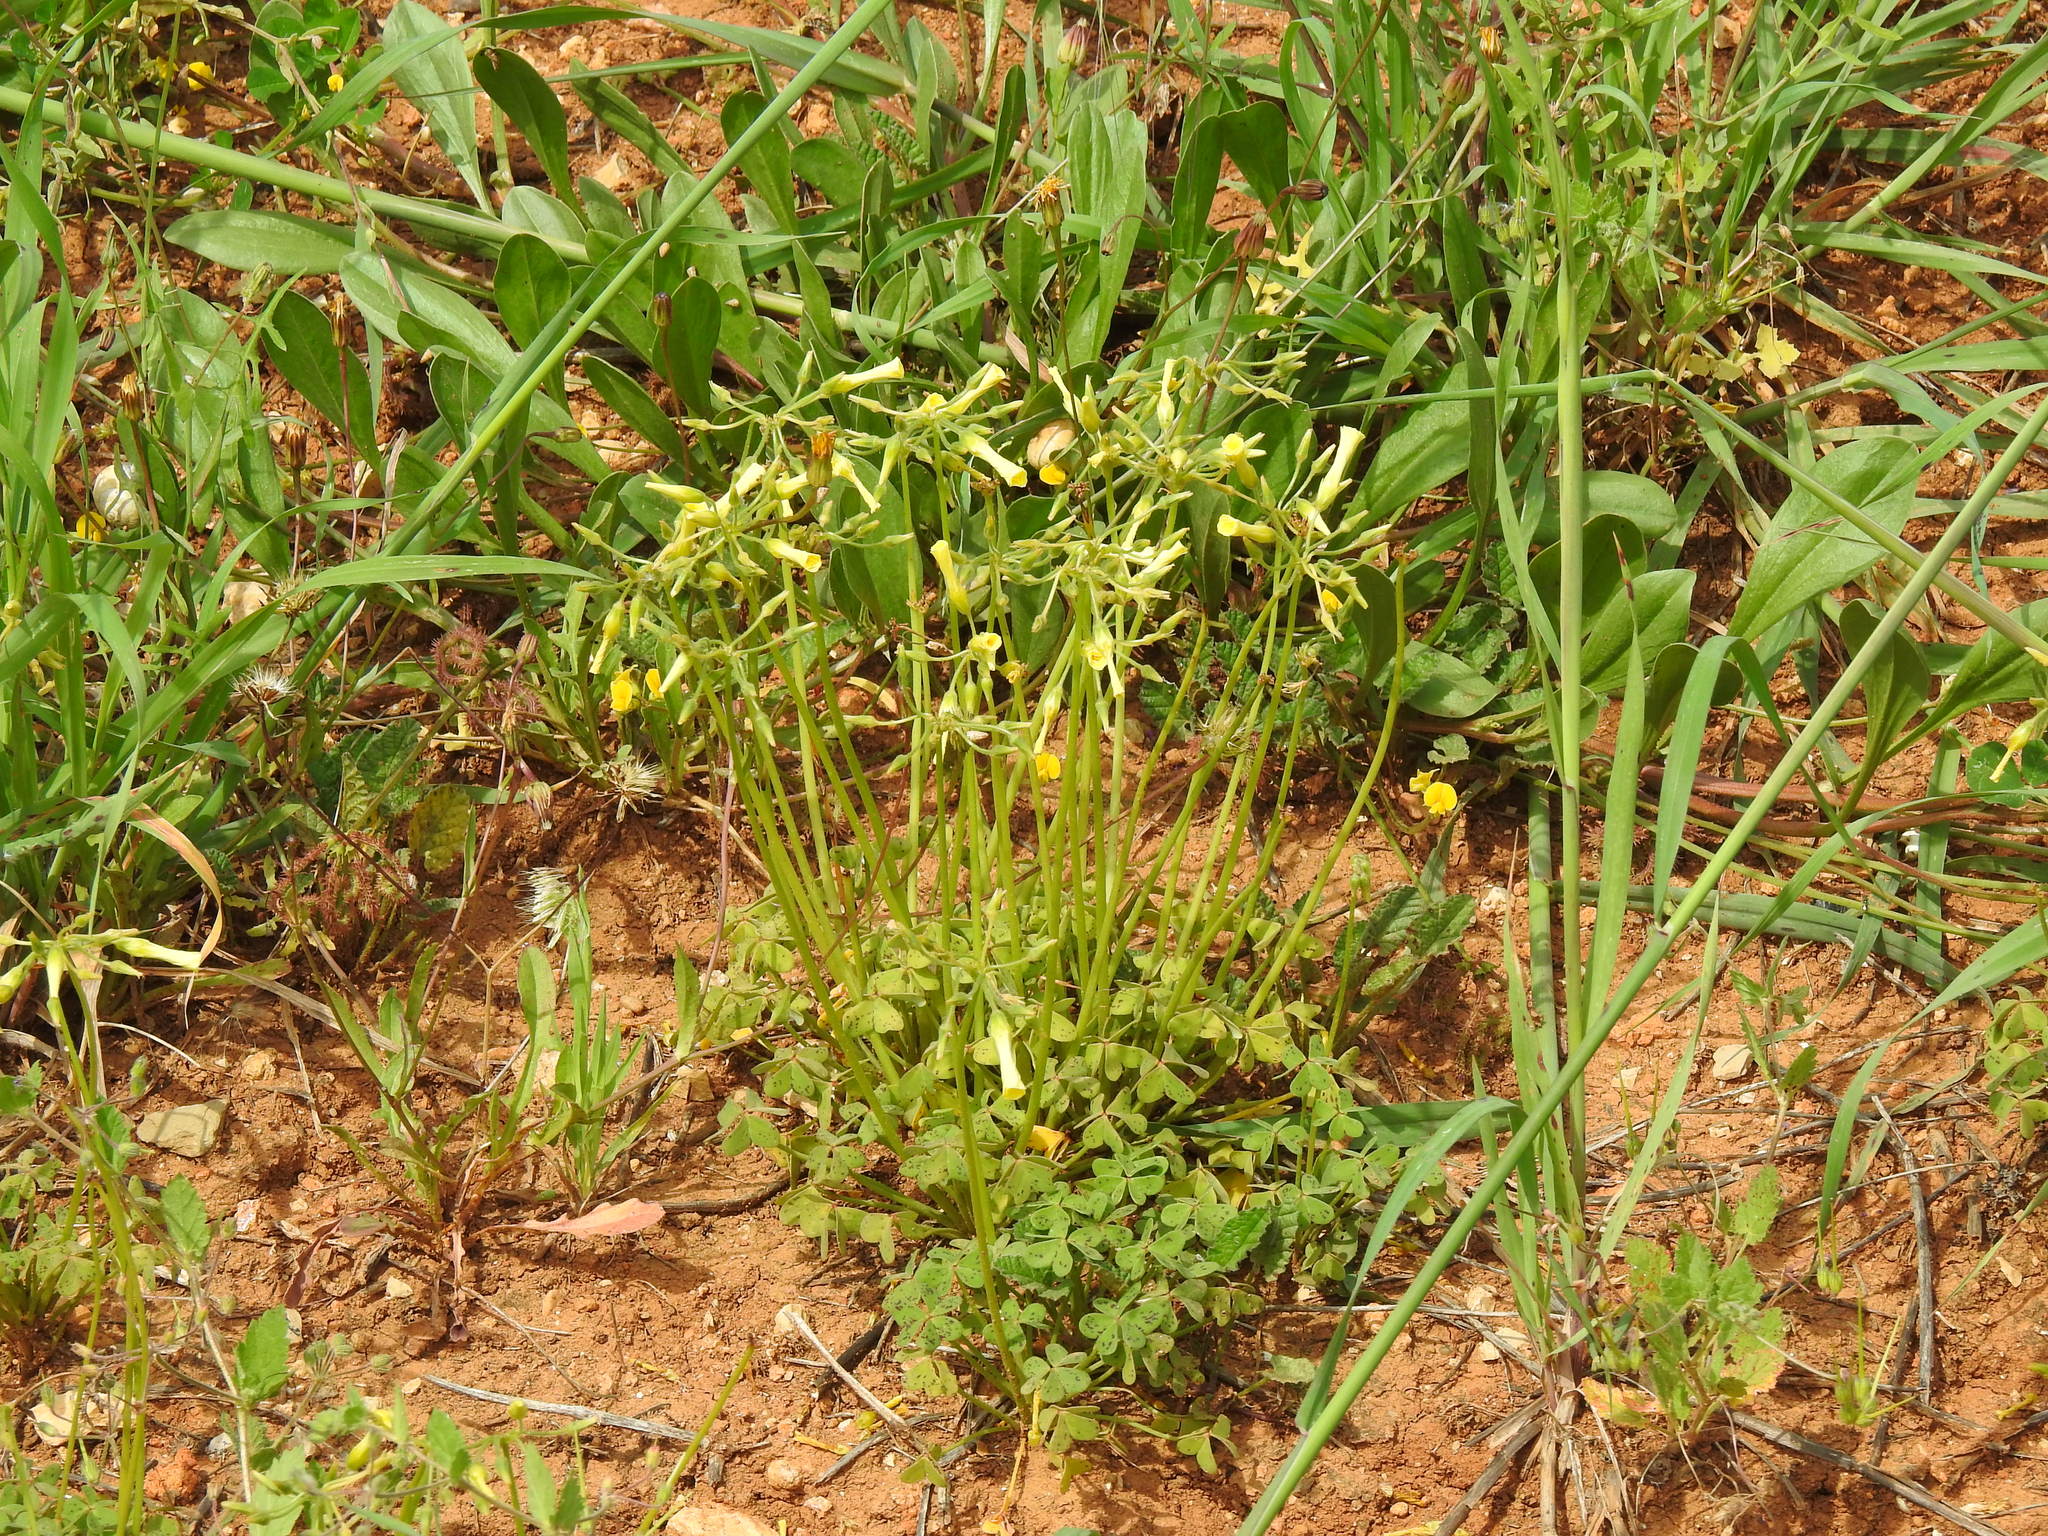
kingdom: Plantae
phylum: Tracheophyta
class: Magnoliopsida
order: Oxalidales
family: Oxalidaceae
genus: Oxalis
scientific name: Oxalis pes-caprae
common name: Bermuda-buttercup
